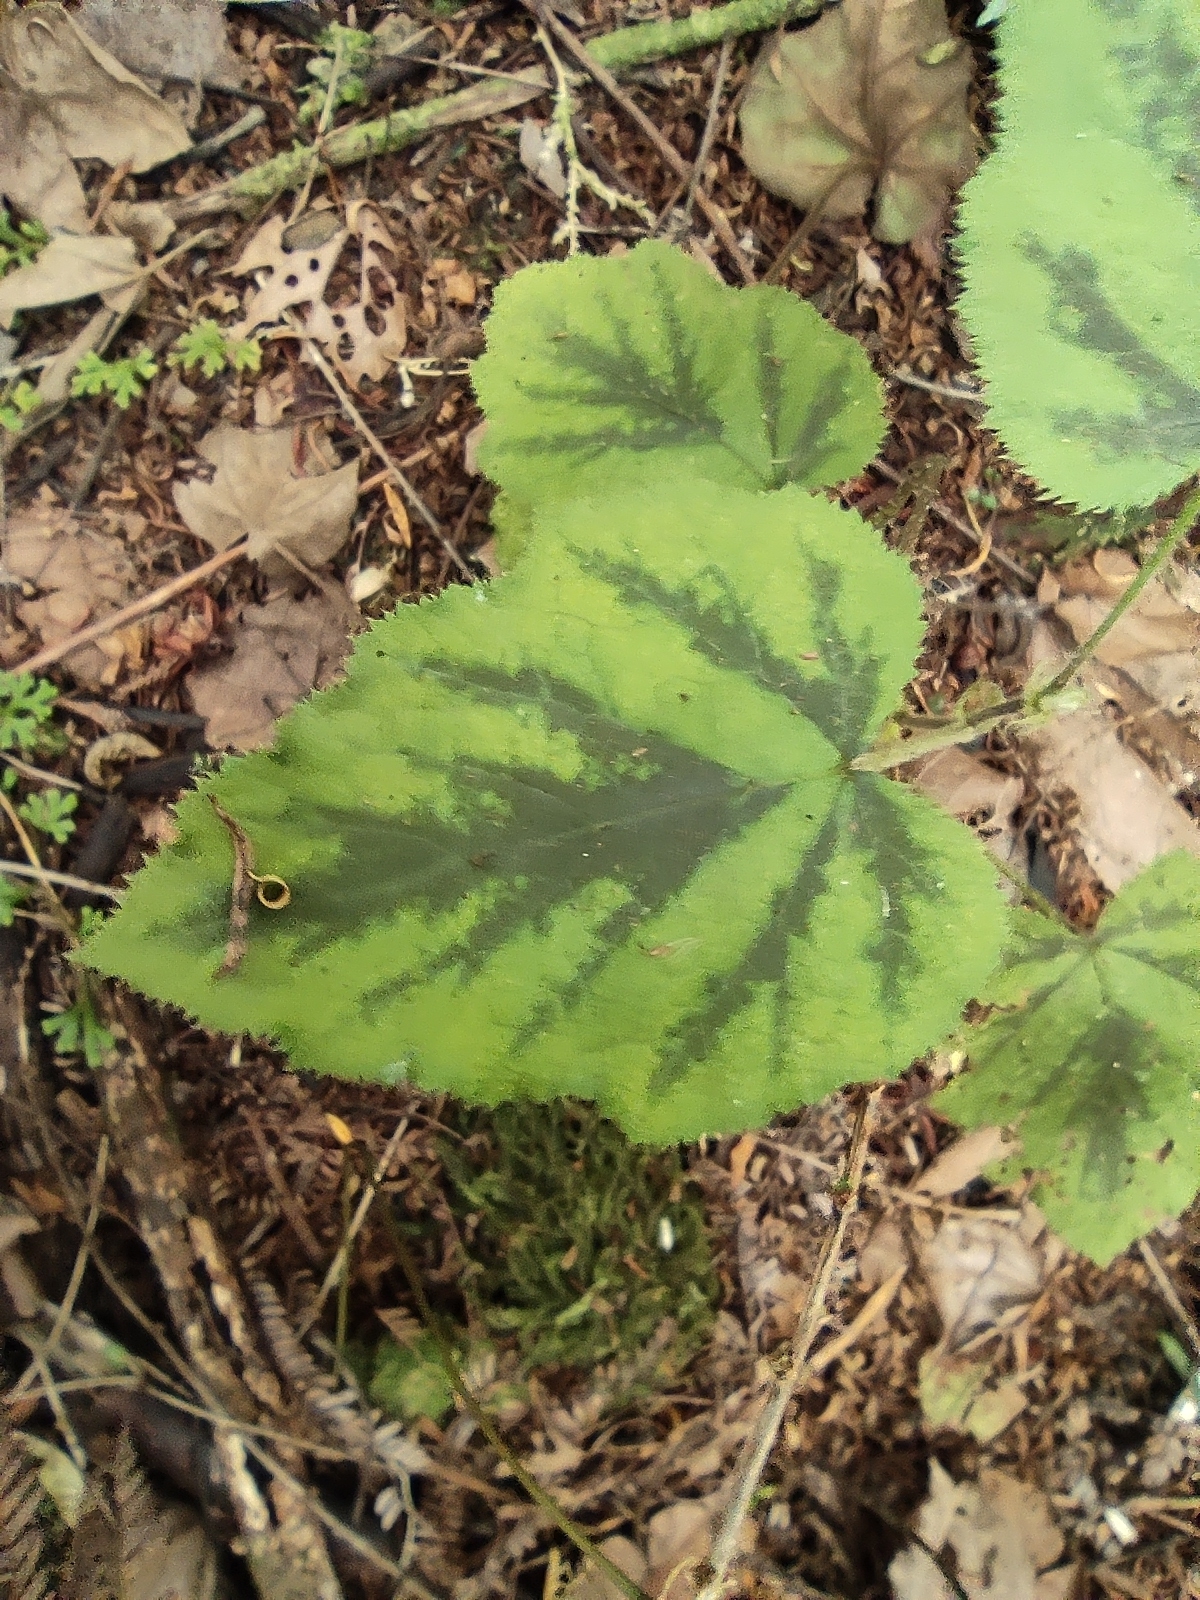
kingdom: Plantae
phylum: Tracheophyta
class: Magnoliopsida
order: Rosales
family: Rosaceae
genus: Rubus
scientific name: Rubus alceifolius
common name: Giant bramble
